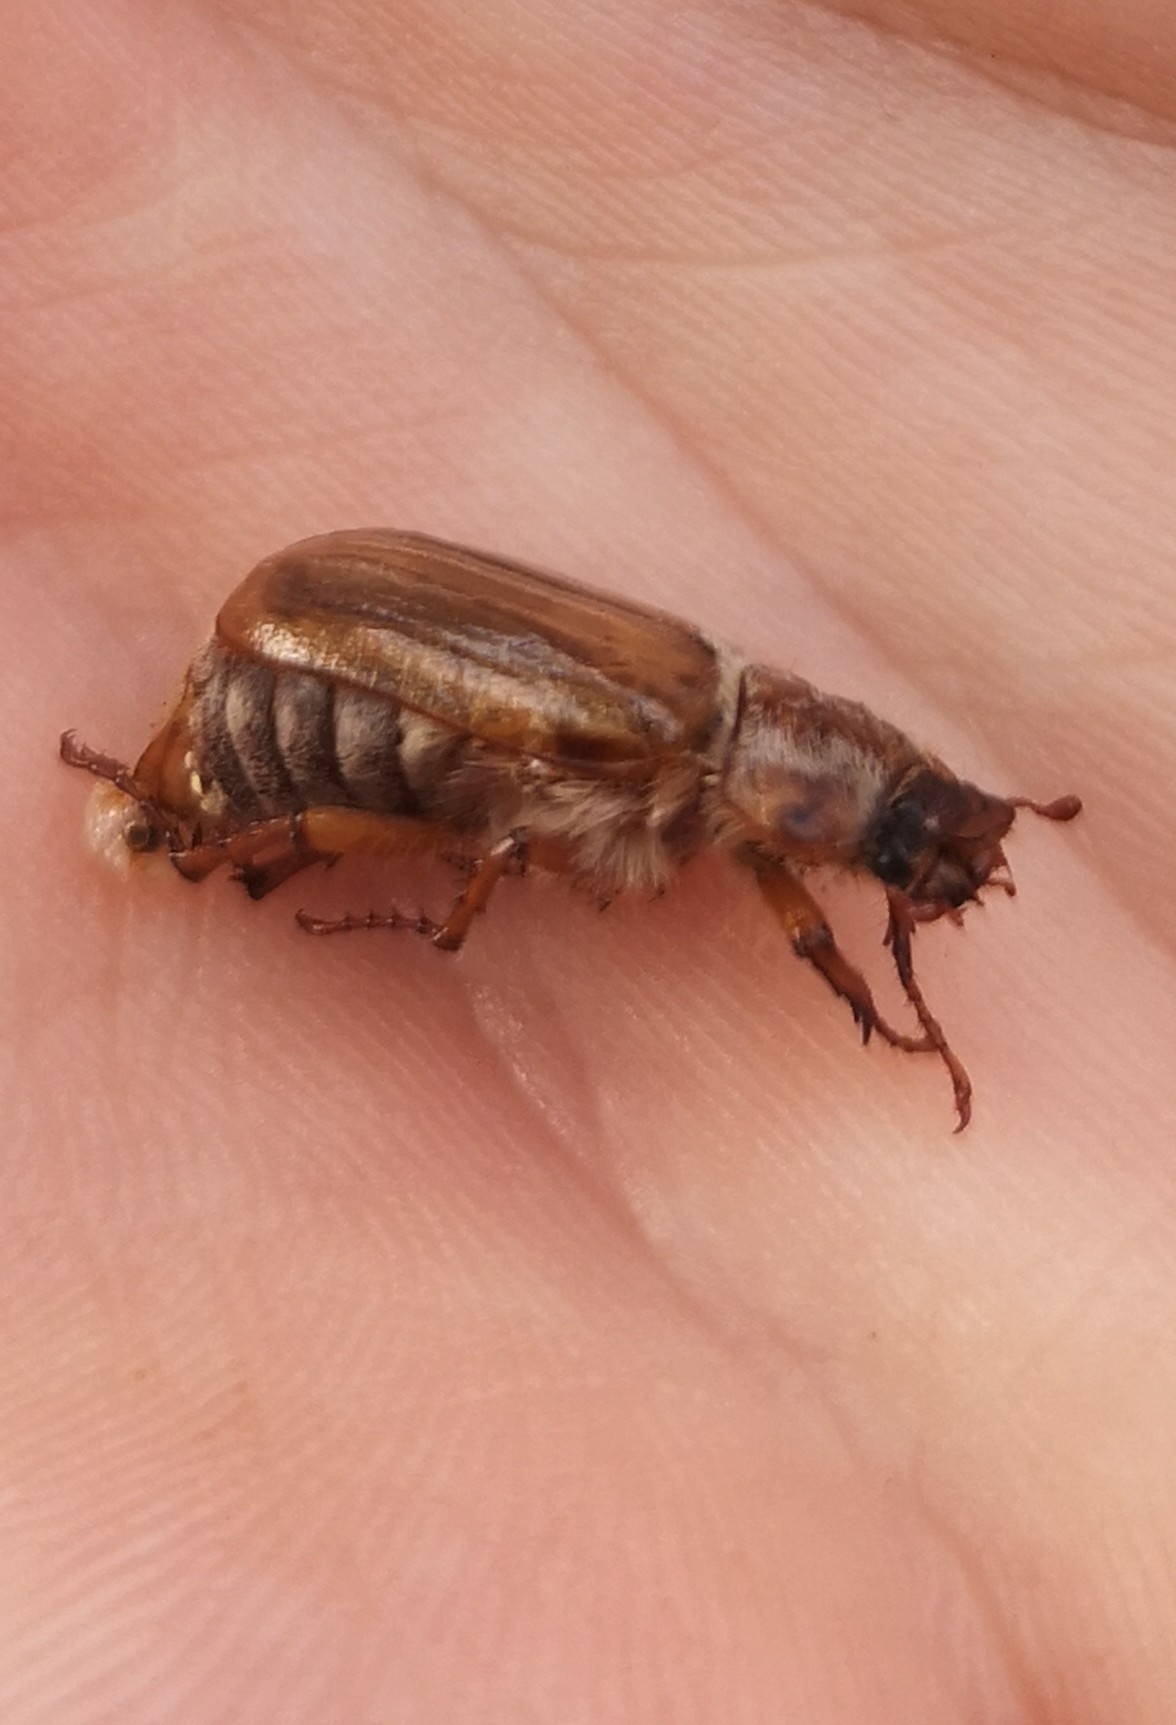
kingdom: Animalia
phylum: Arthropoda
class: Insecta
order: Coleoptera
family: Scarabaeidae
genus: Amphimallon
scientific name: Amphimallon solstitiale
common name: Summer chafer
